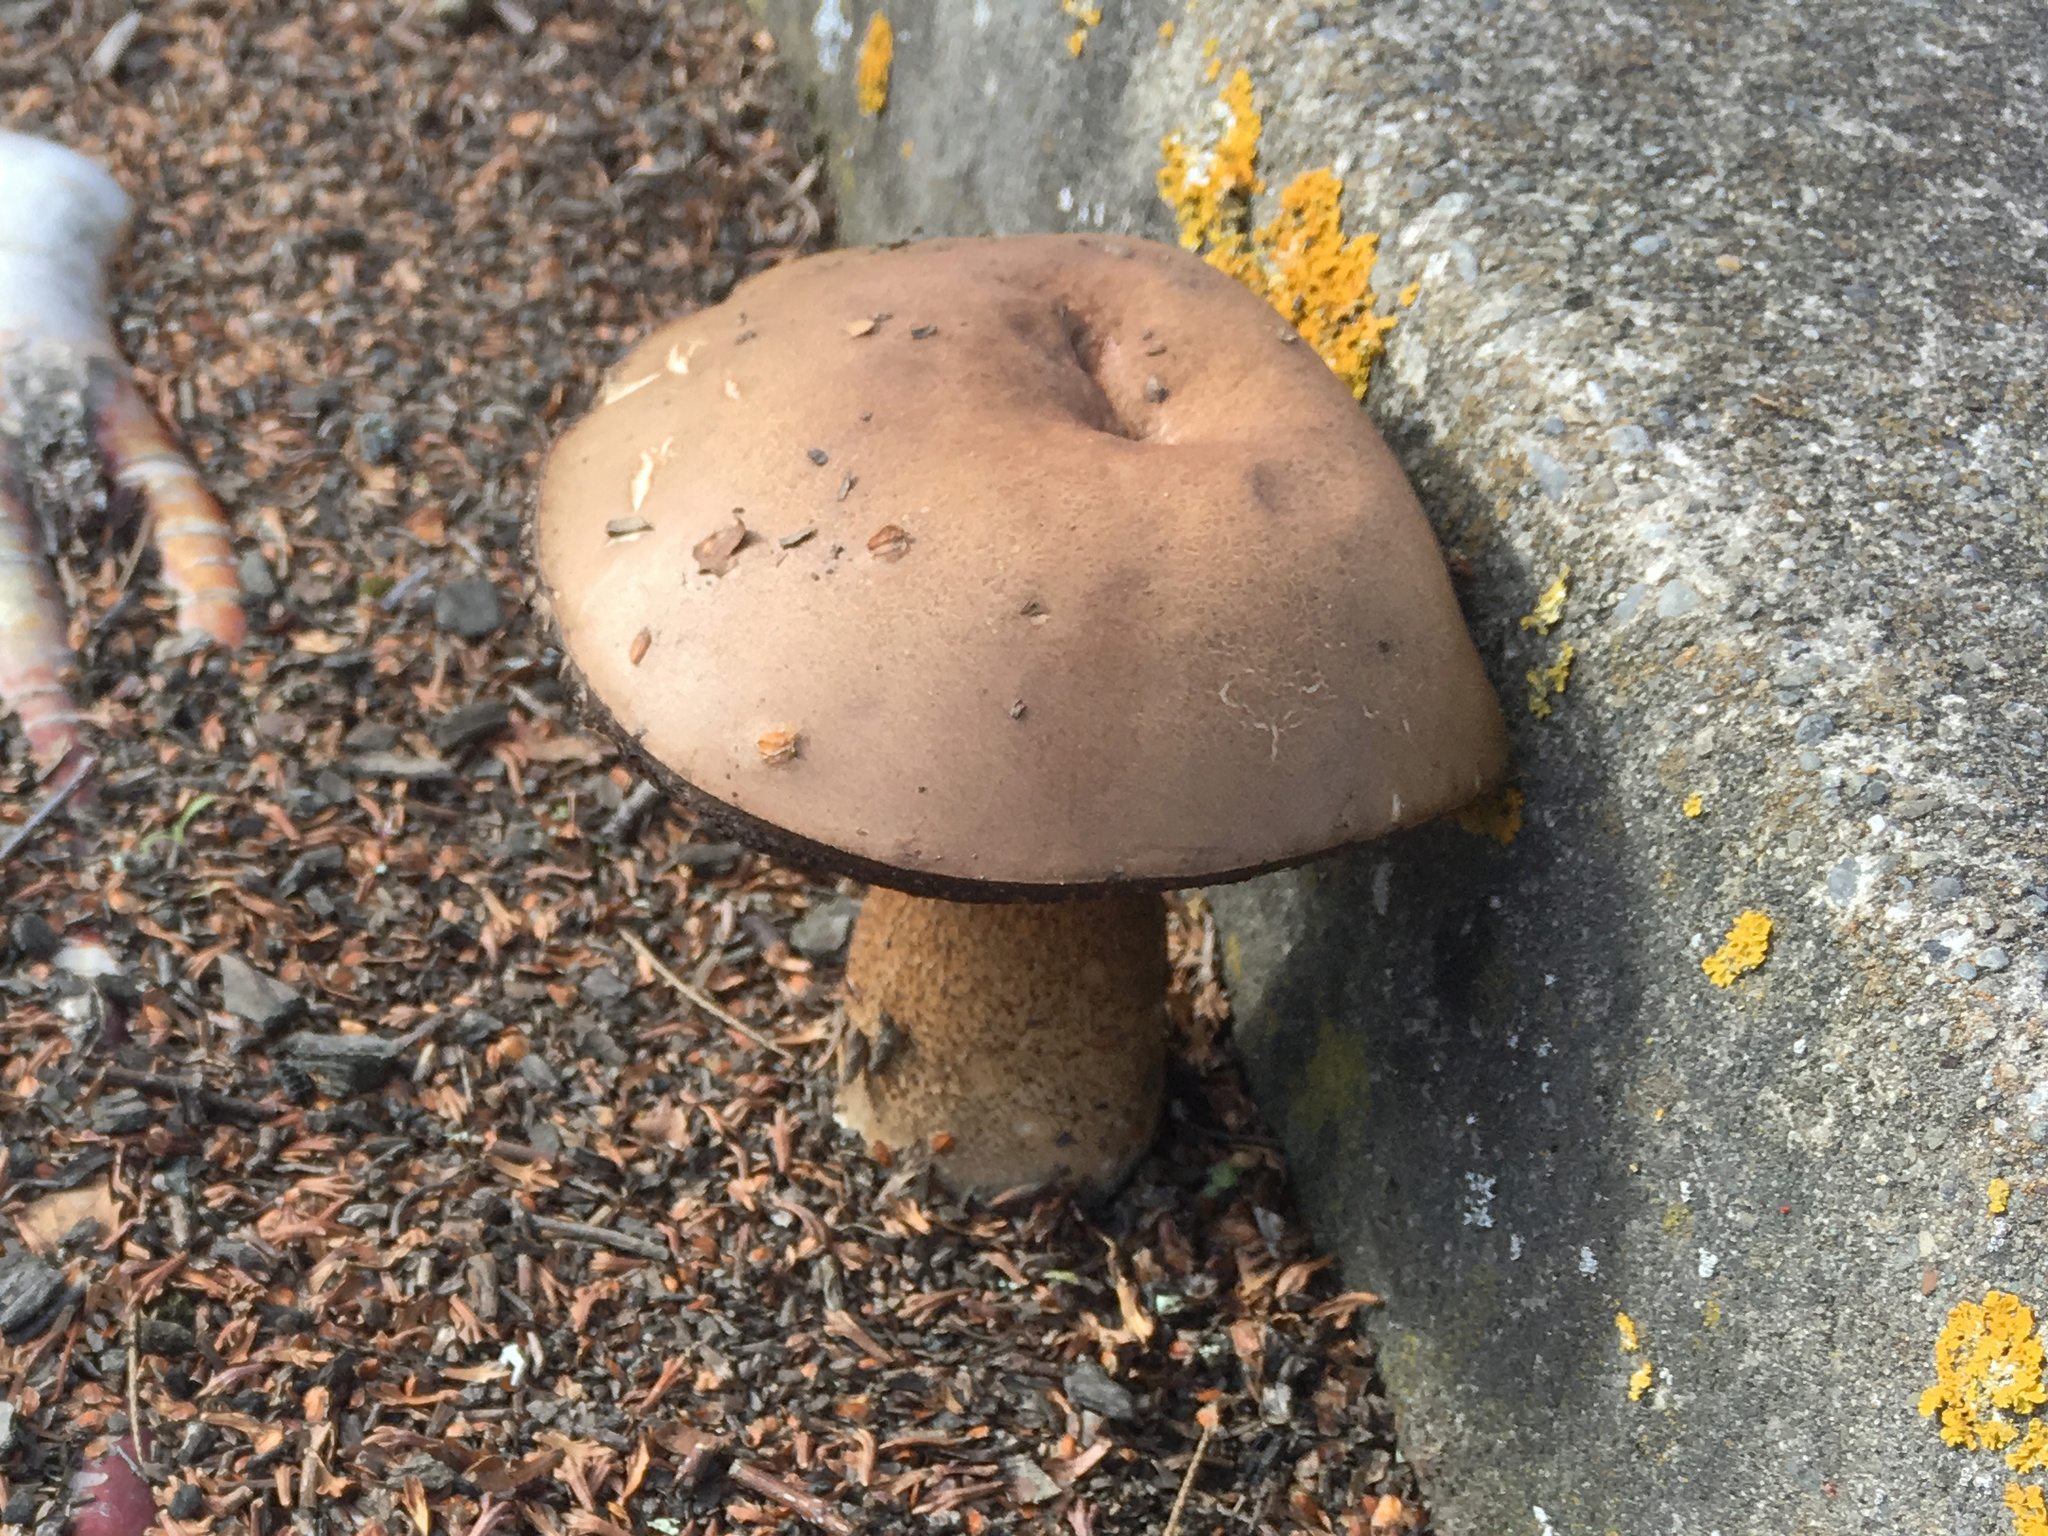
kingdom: Fungi
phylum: Basidiomycota
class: Agaricomycetes
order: Boletales
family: Boletaceae
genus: Leccinum
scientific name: Leccinum scabrum
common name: Blushing bolete
